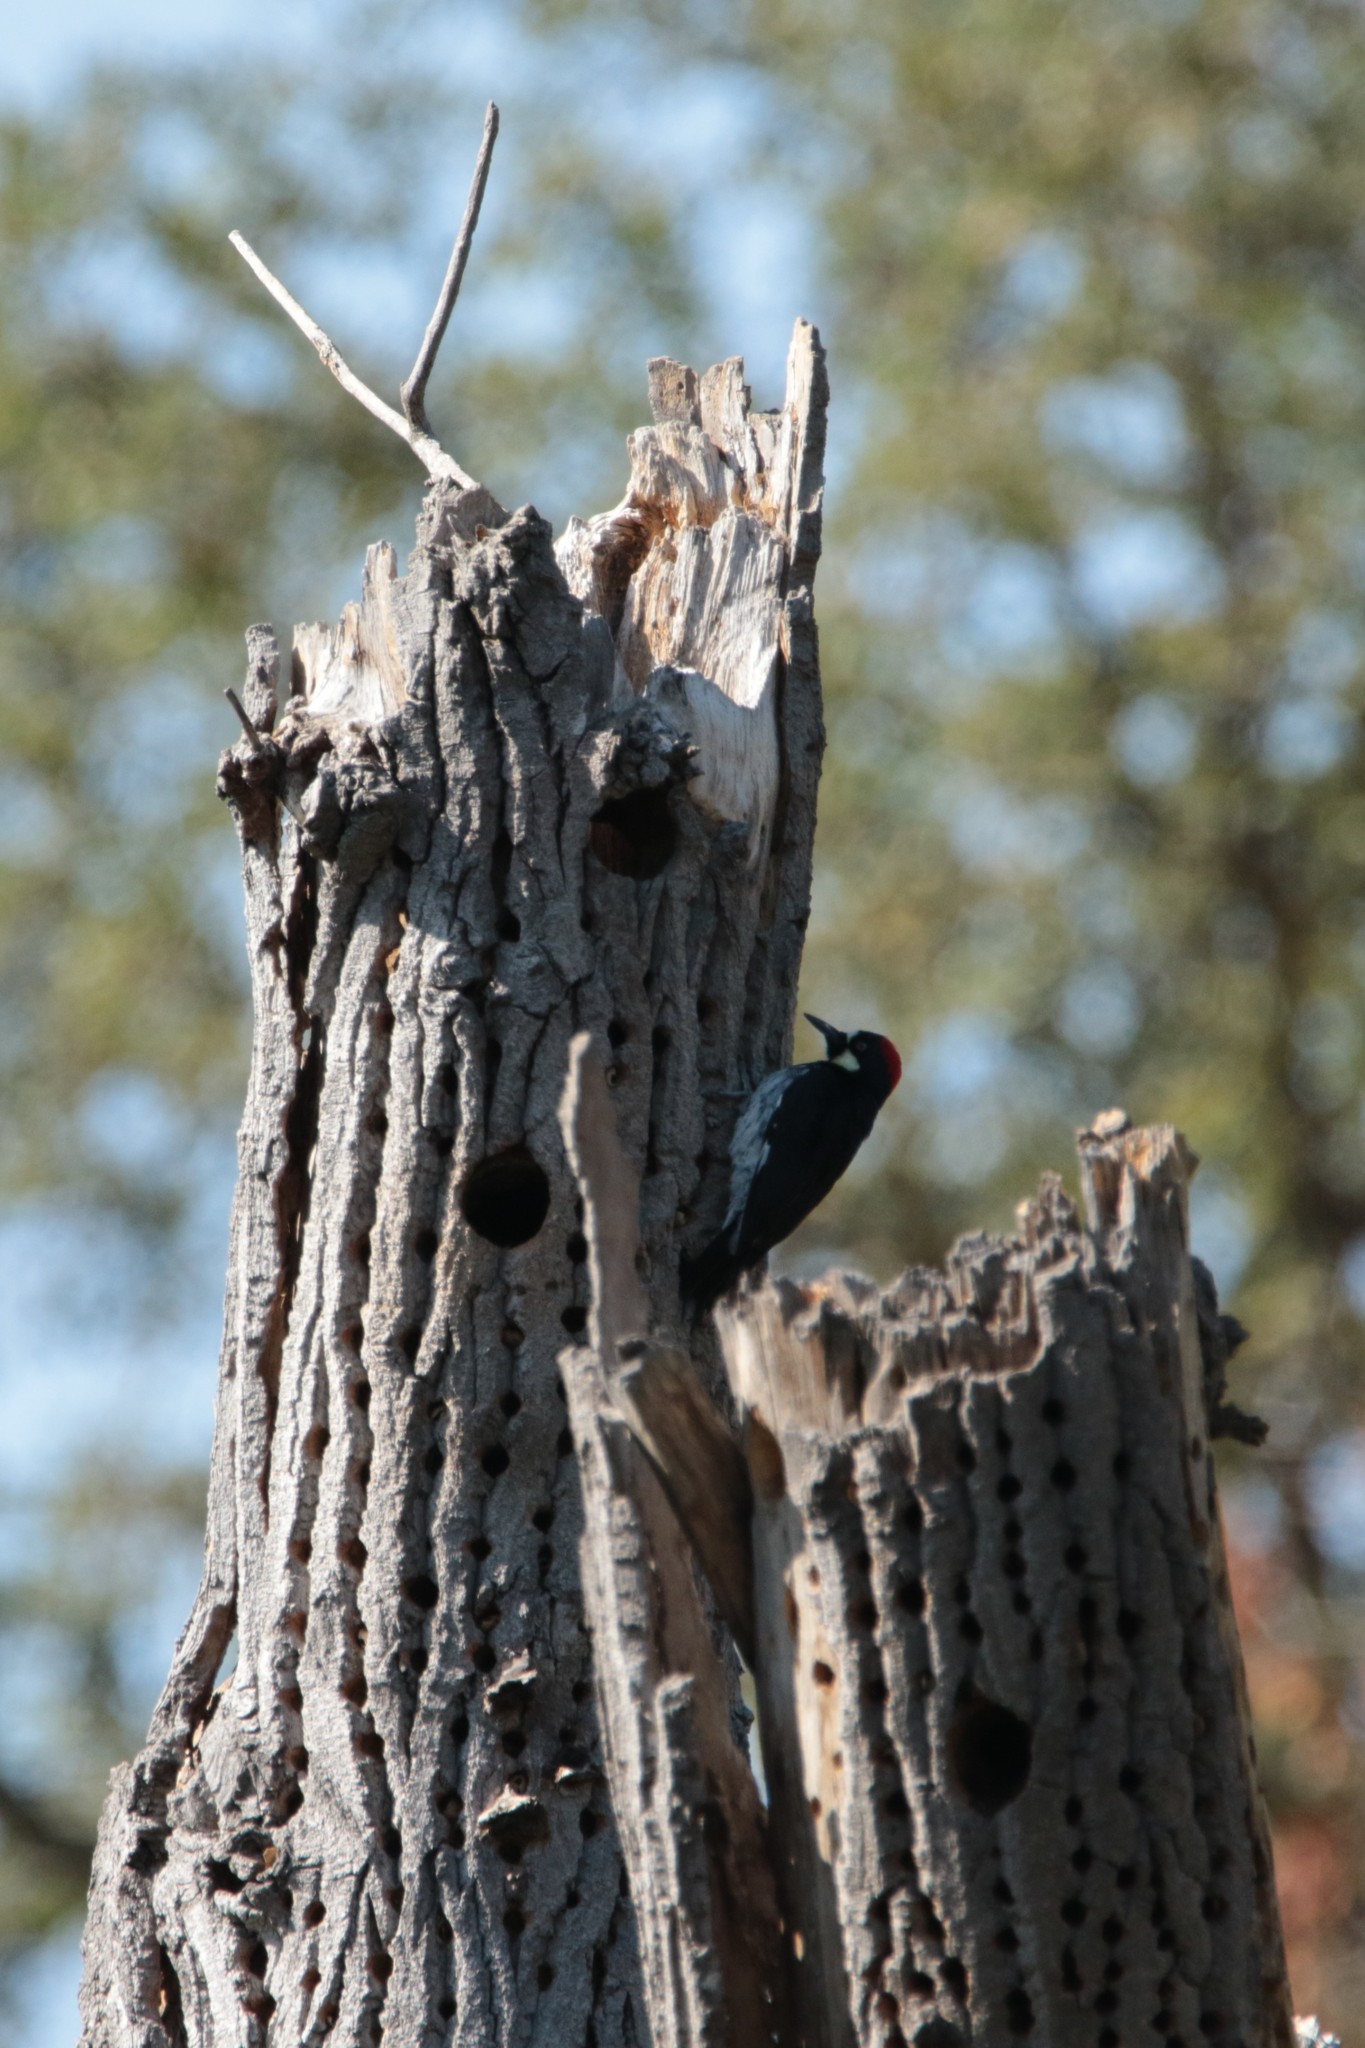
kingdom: Animalia
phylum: Chordata
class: Aves
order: Piciformes
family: Picidae
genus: Melanerpes
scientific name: Melanerpes formicivorus
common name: Acorn woodpecker
